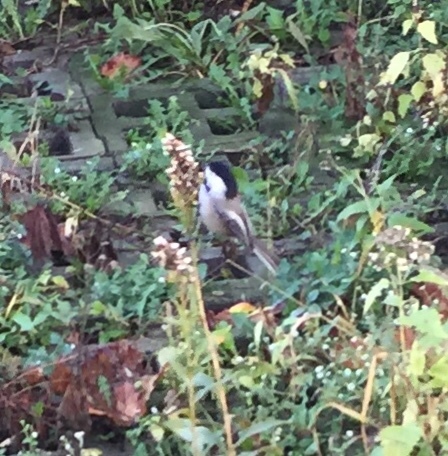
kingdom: Animalia
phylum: Chordata
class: Aves
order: Passeriformes
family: Paridae
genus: Poecile
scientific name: Poecile atricapillus
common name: Black-capped chickadee
